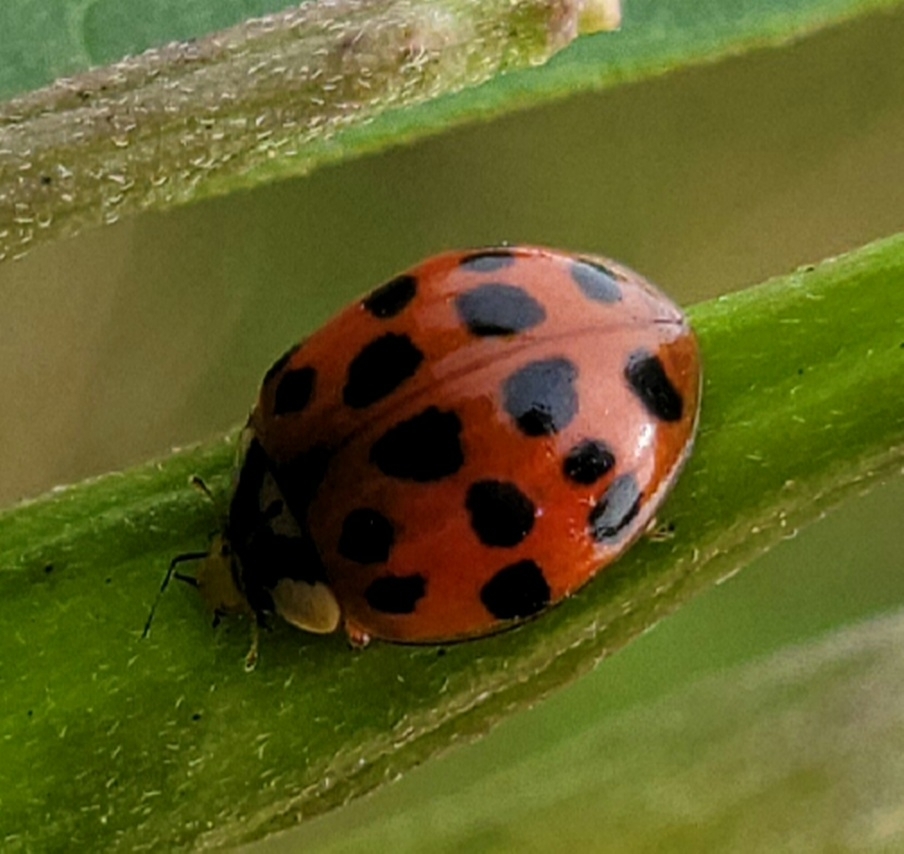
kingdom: Animalia
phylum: Arthropoda
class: Insecta
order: Coleoptera
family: Coccinellidae
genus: Harmonia
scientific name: Harmonia axyridis
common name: Harlequin ladybird
